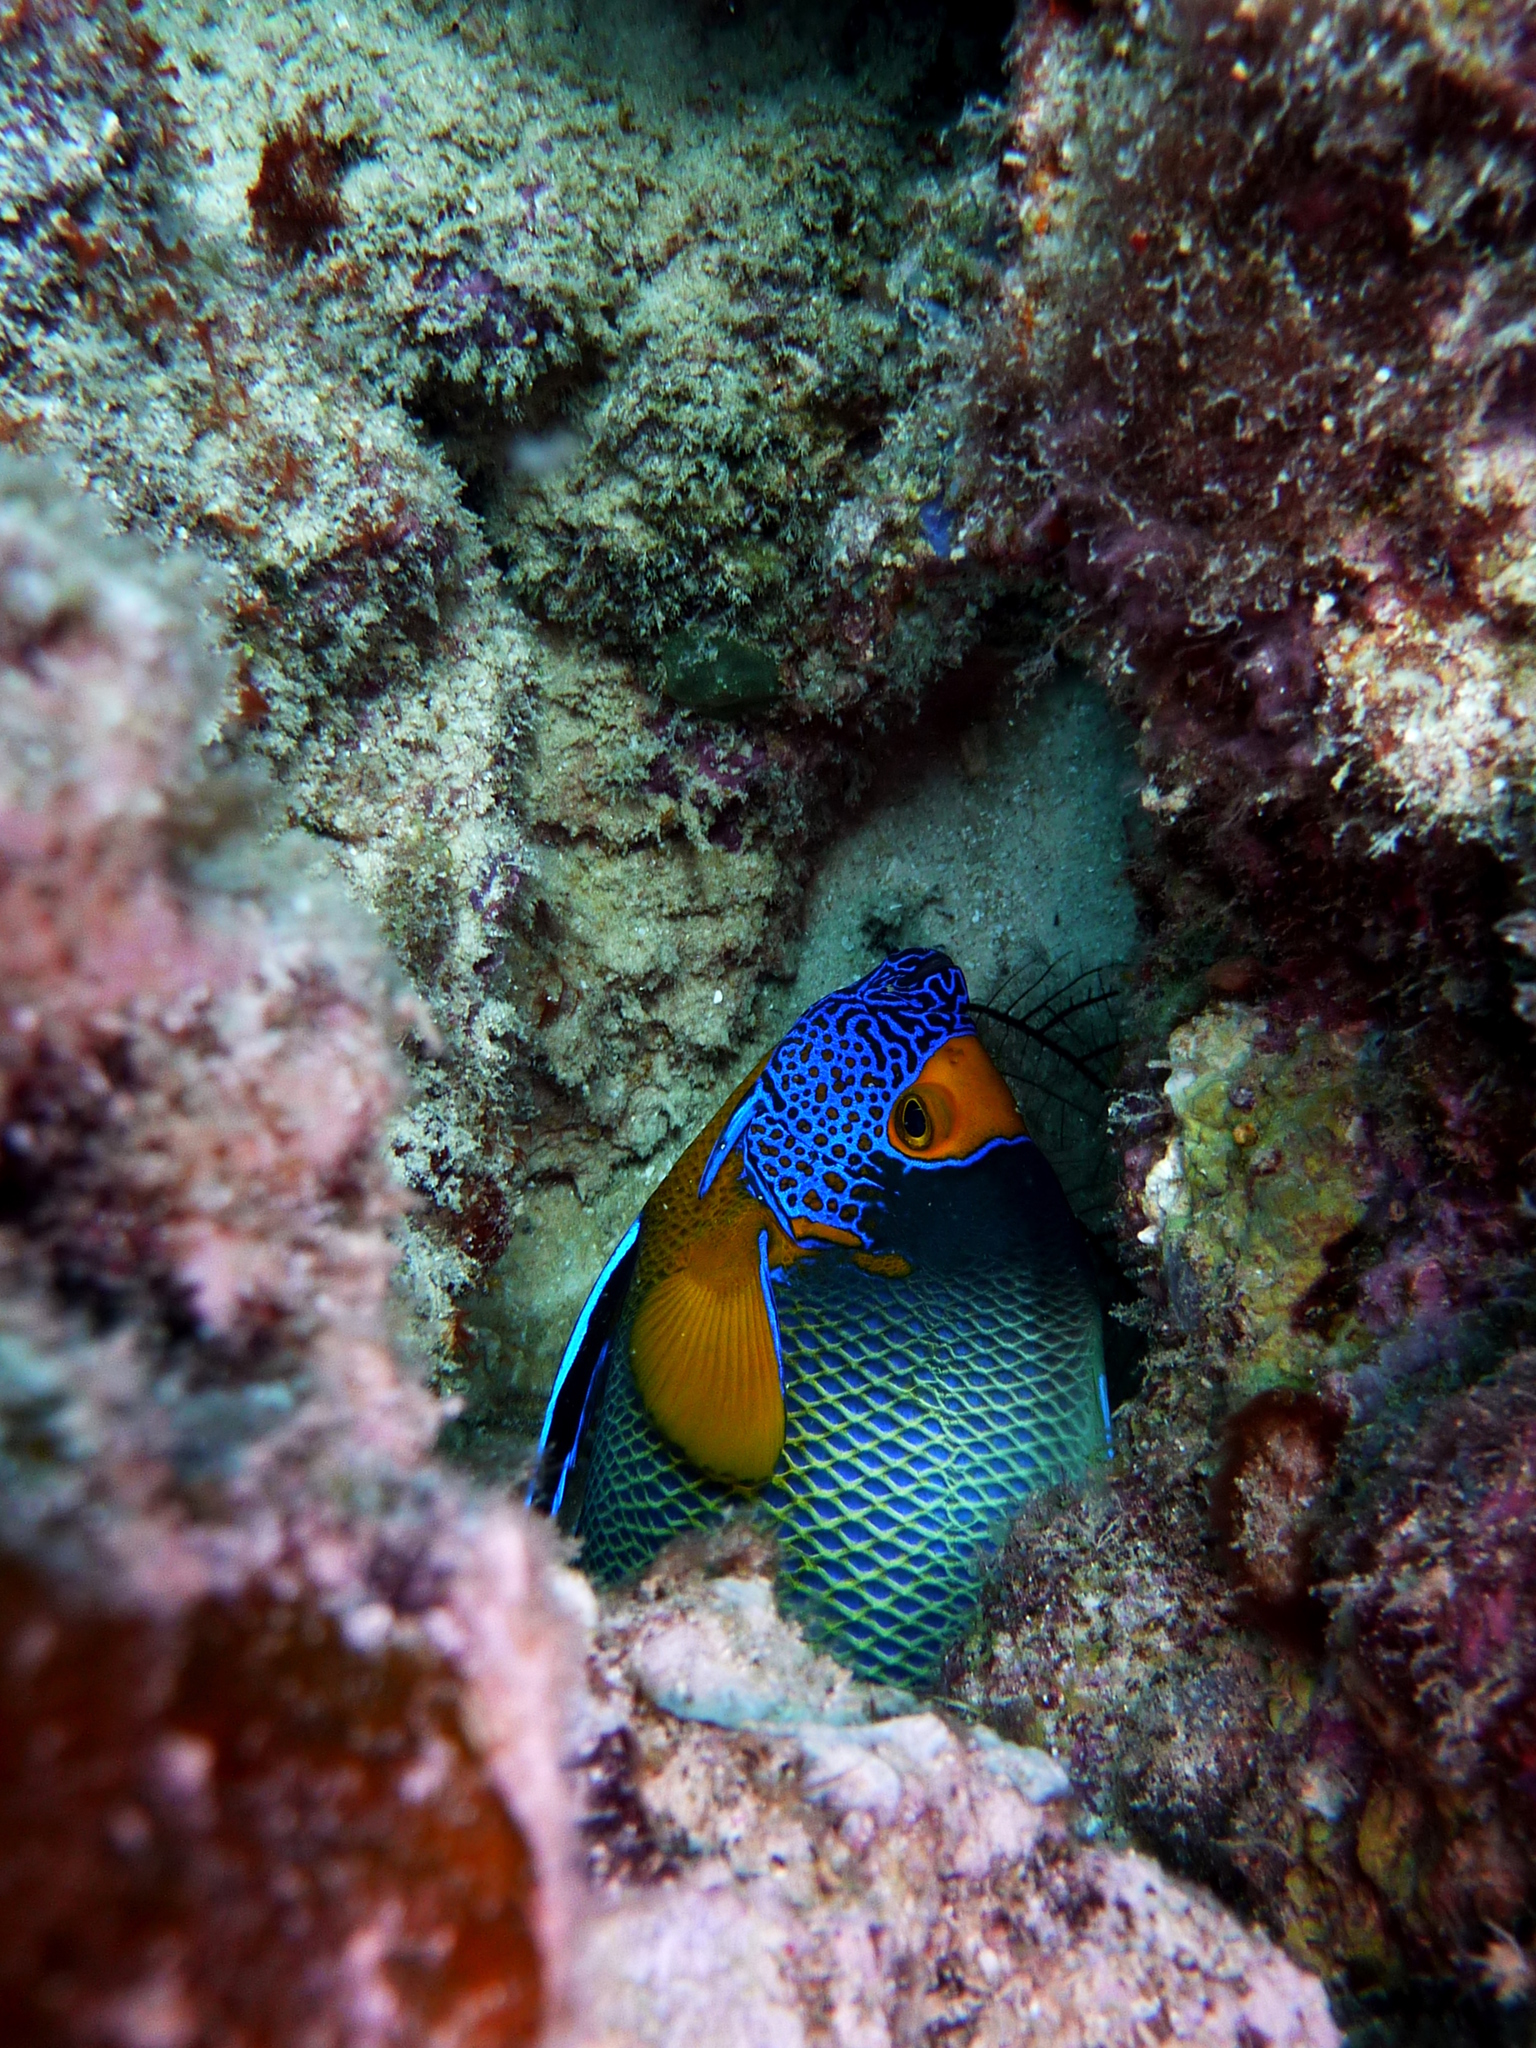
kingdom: Animalia
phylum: Chordata
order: Perciformes
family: Pomacanthidae
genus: Pomacanthus
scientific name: Pomacanthus xanthometopon
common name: Yellow-faced angelfish
